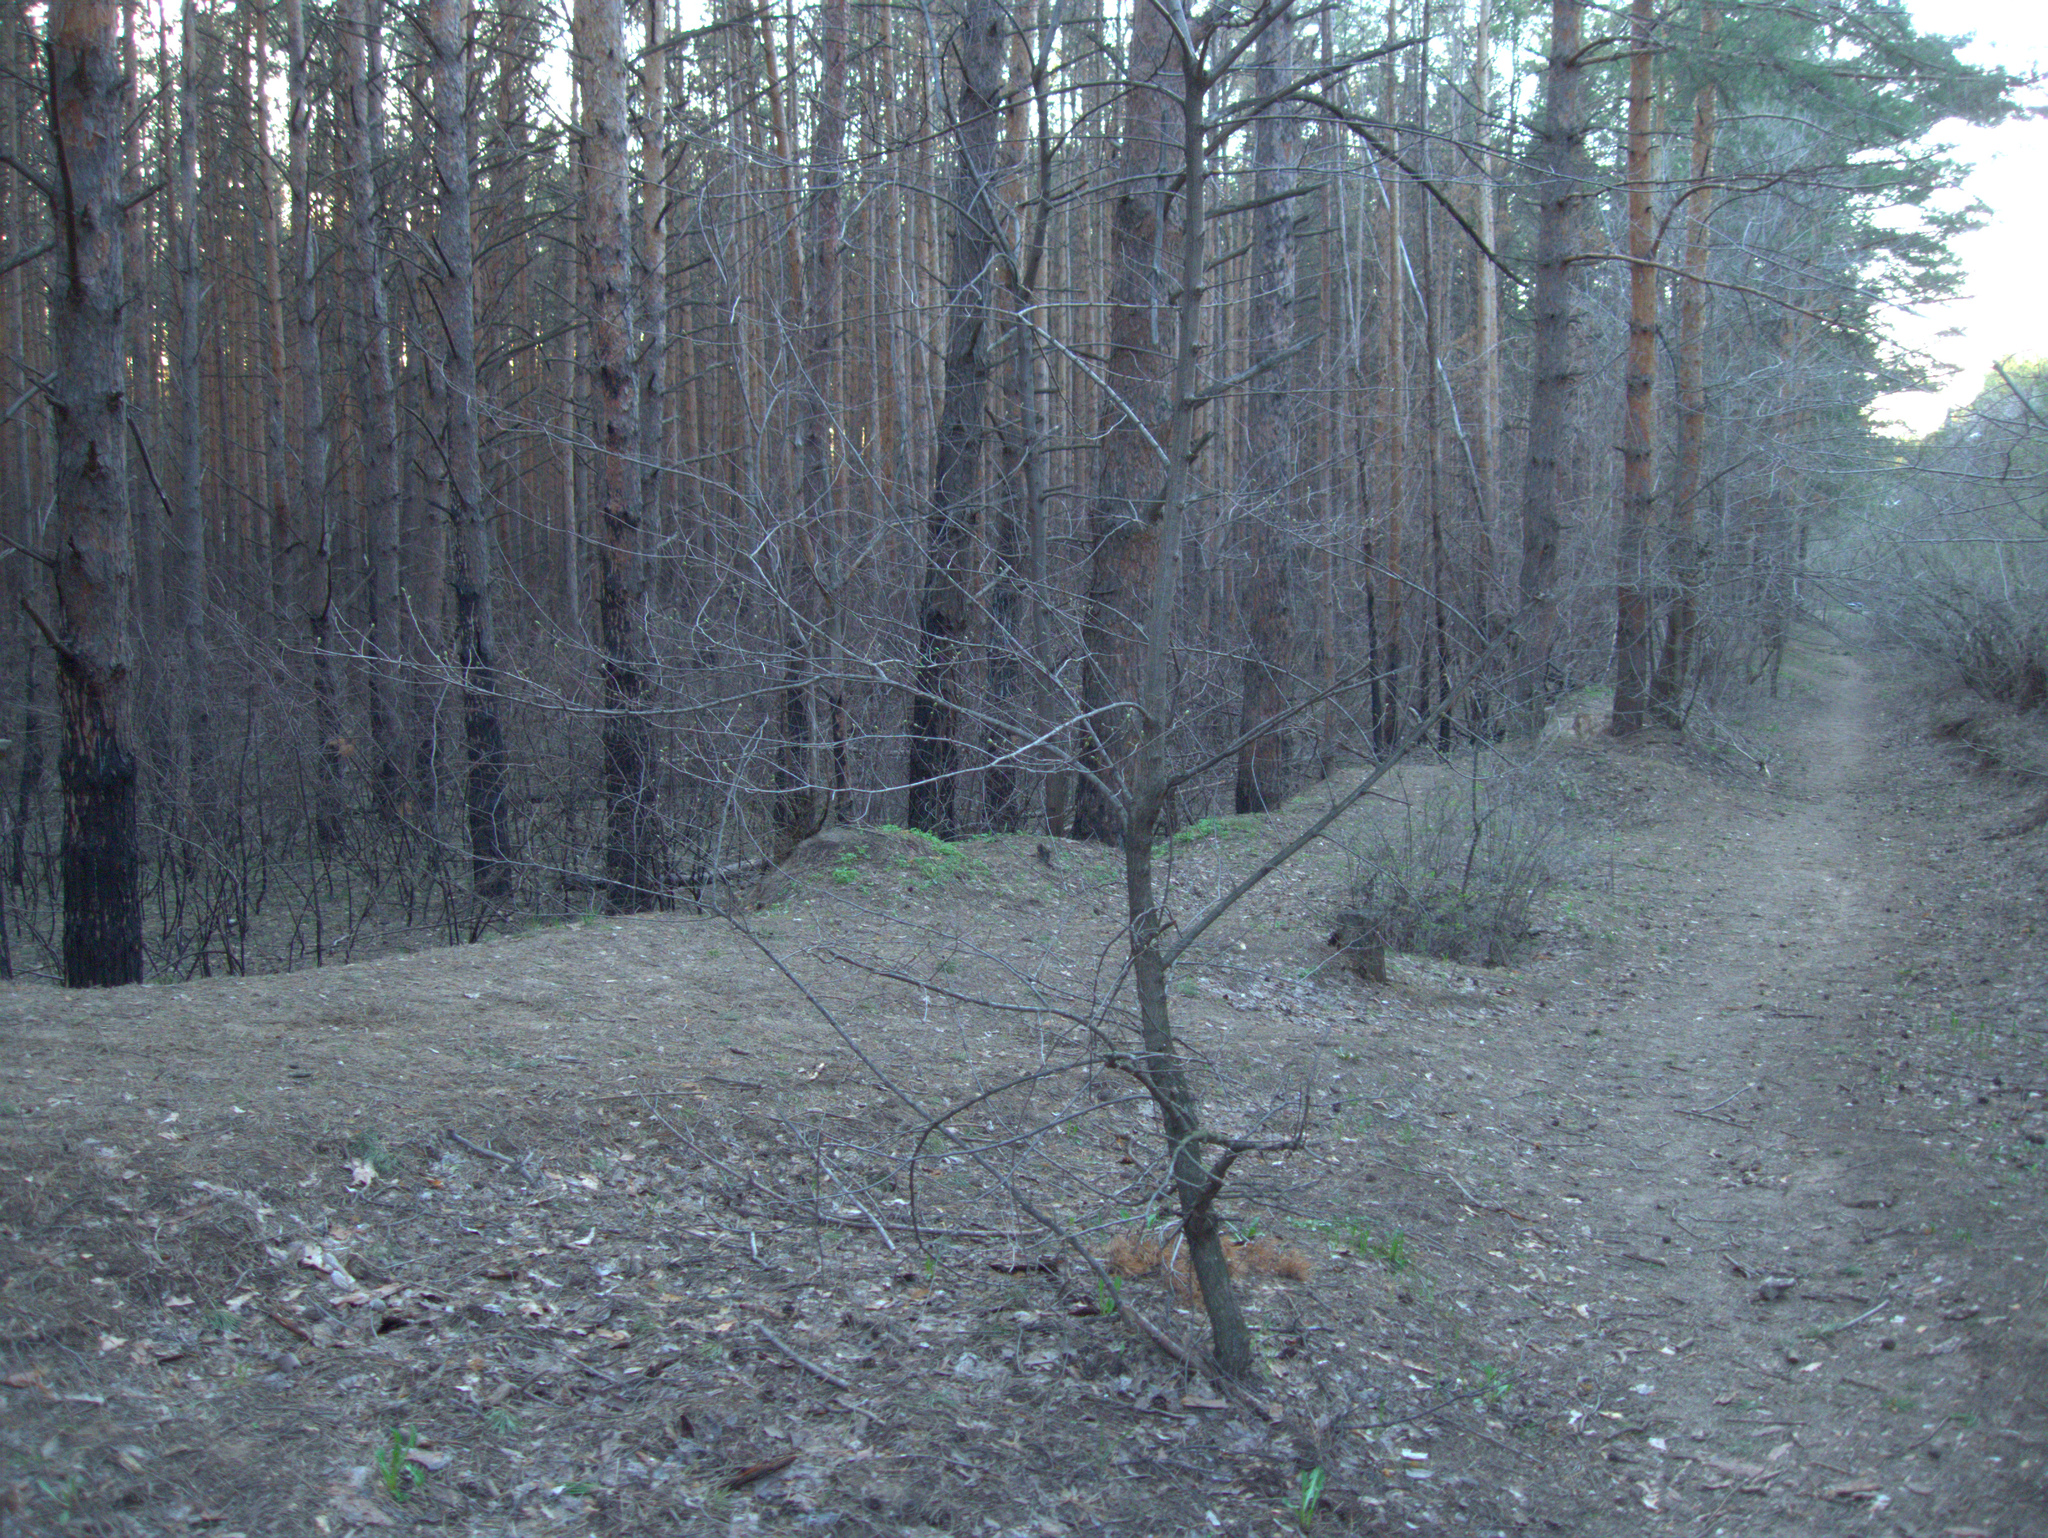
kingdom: Plantae
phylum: Tracheophyta
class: Pinopsida
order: Pinales
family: Pinaceae
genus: Pinus
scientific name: Pinus sylvestris
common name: Scots pine
